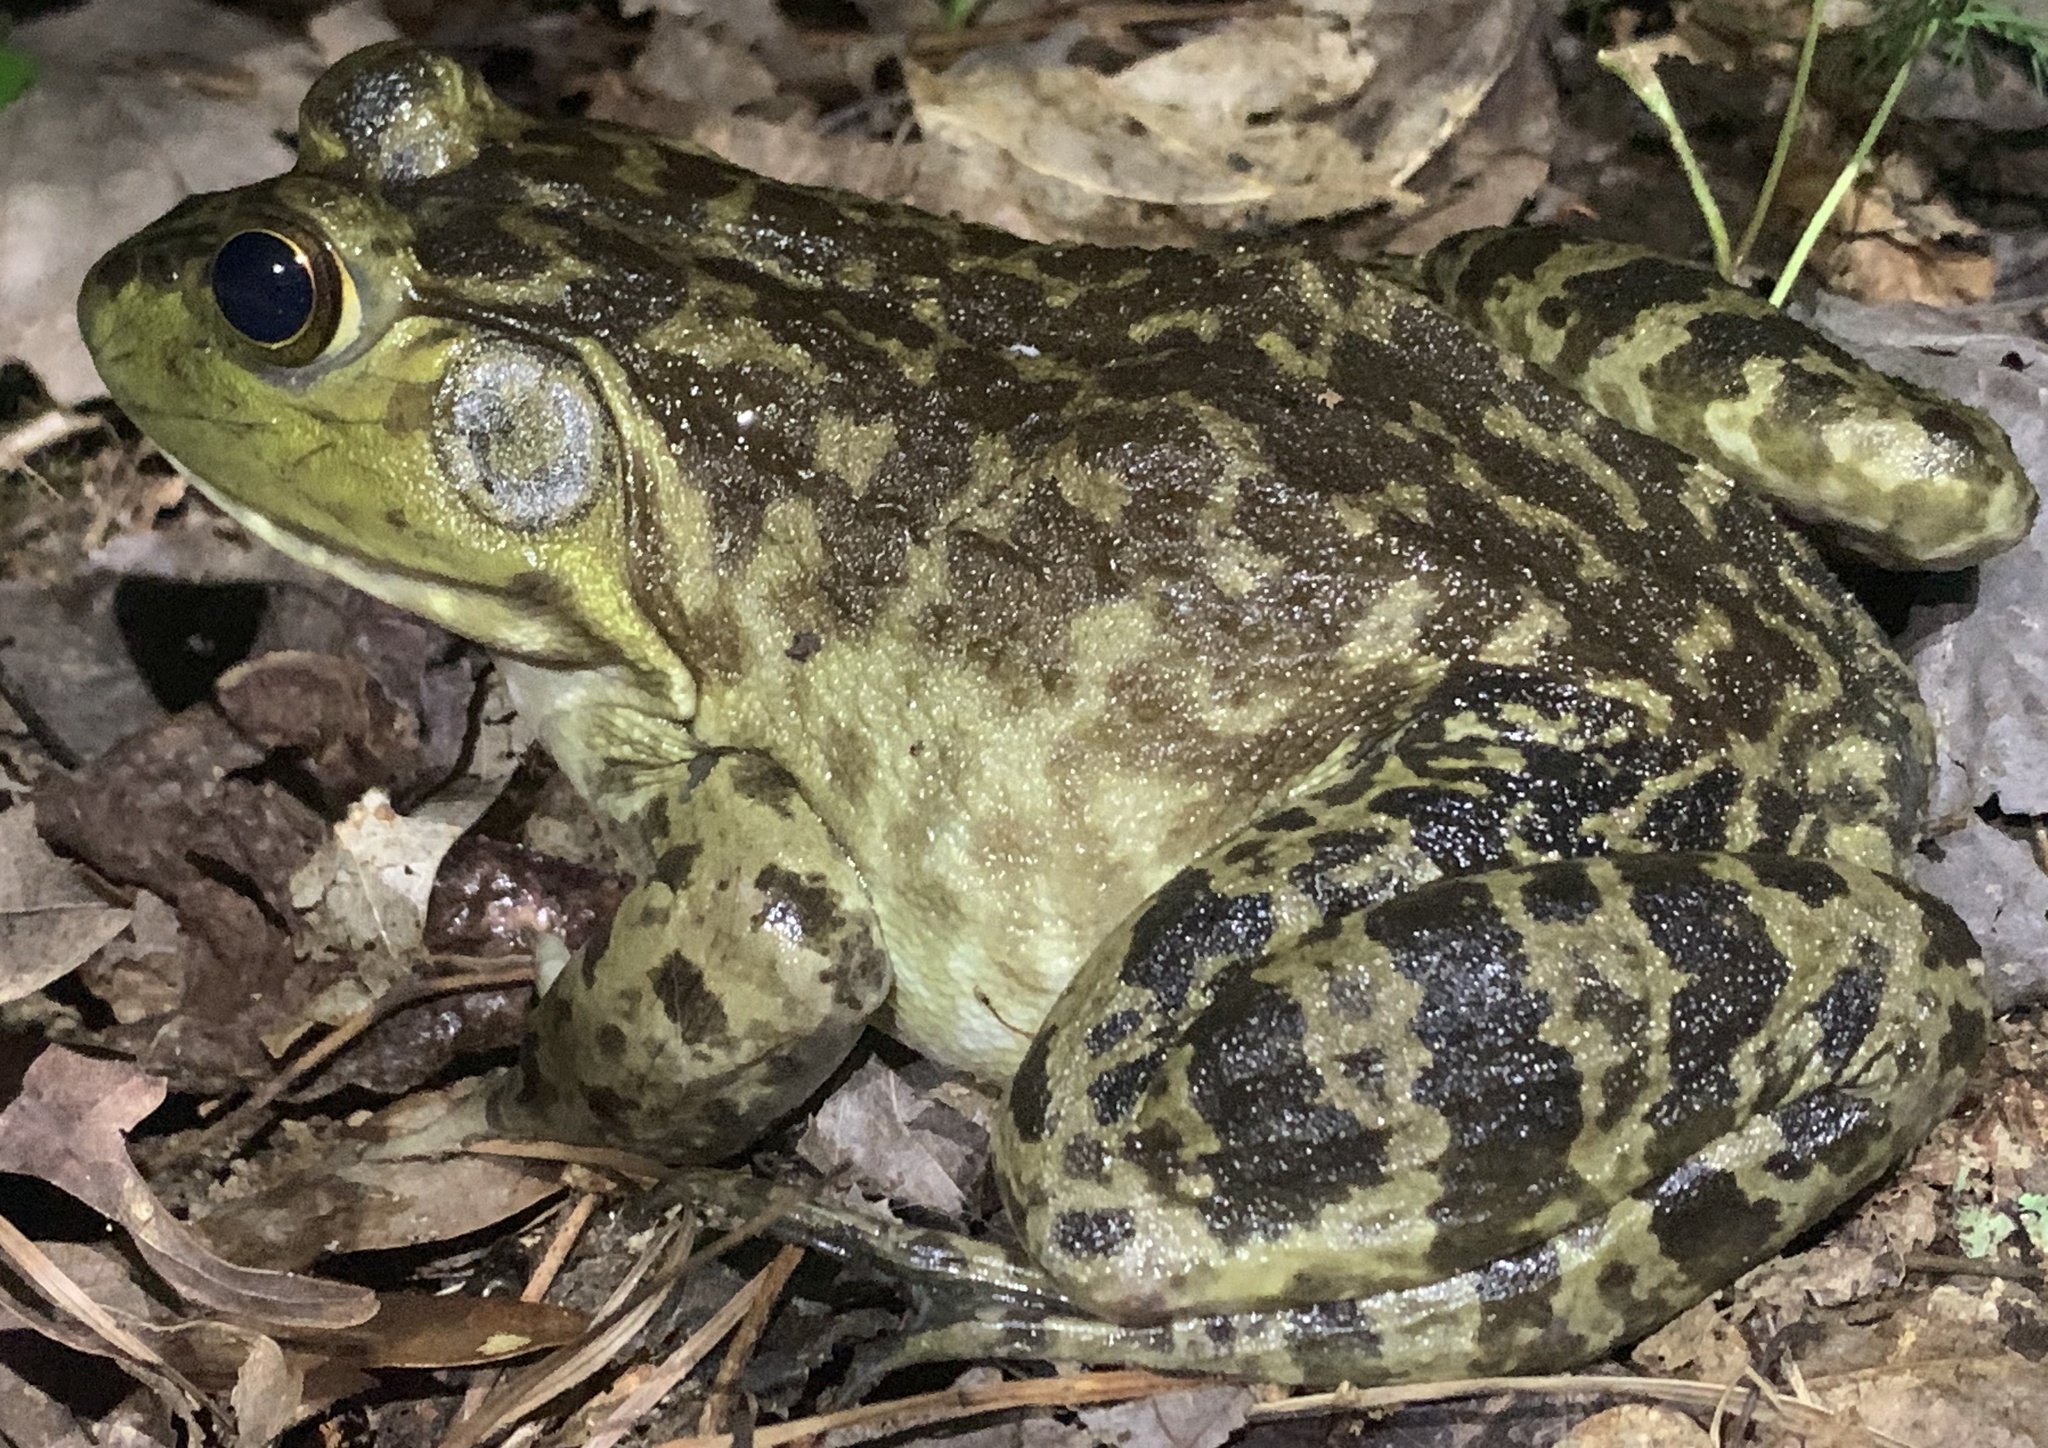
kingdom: Animalia
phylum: Chordata
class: Amphibia
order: Anura
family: Ranidae
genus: Lithobates
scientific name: Lithobates catesbeianus
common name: American bullfrog
